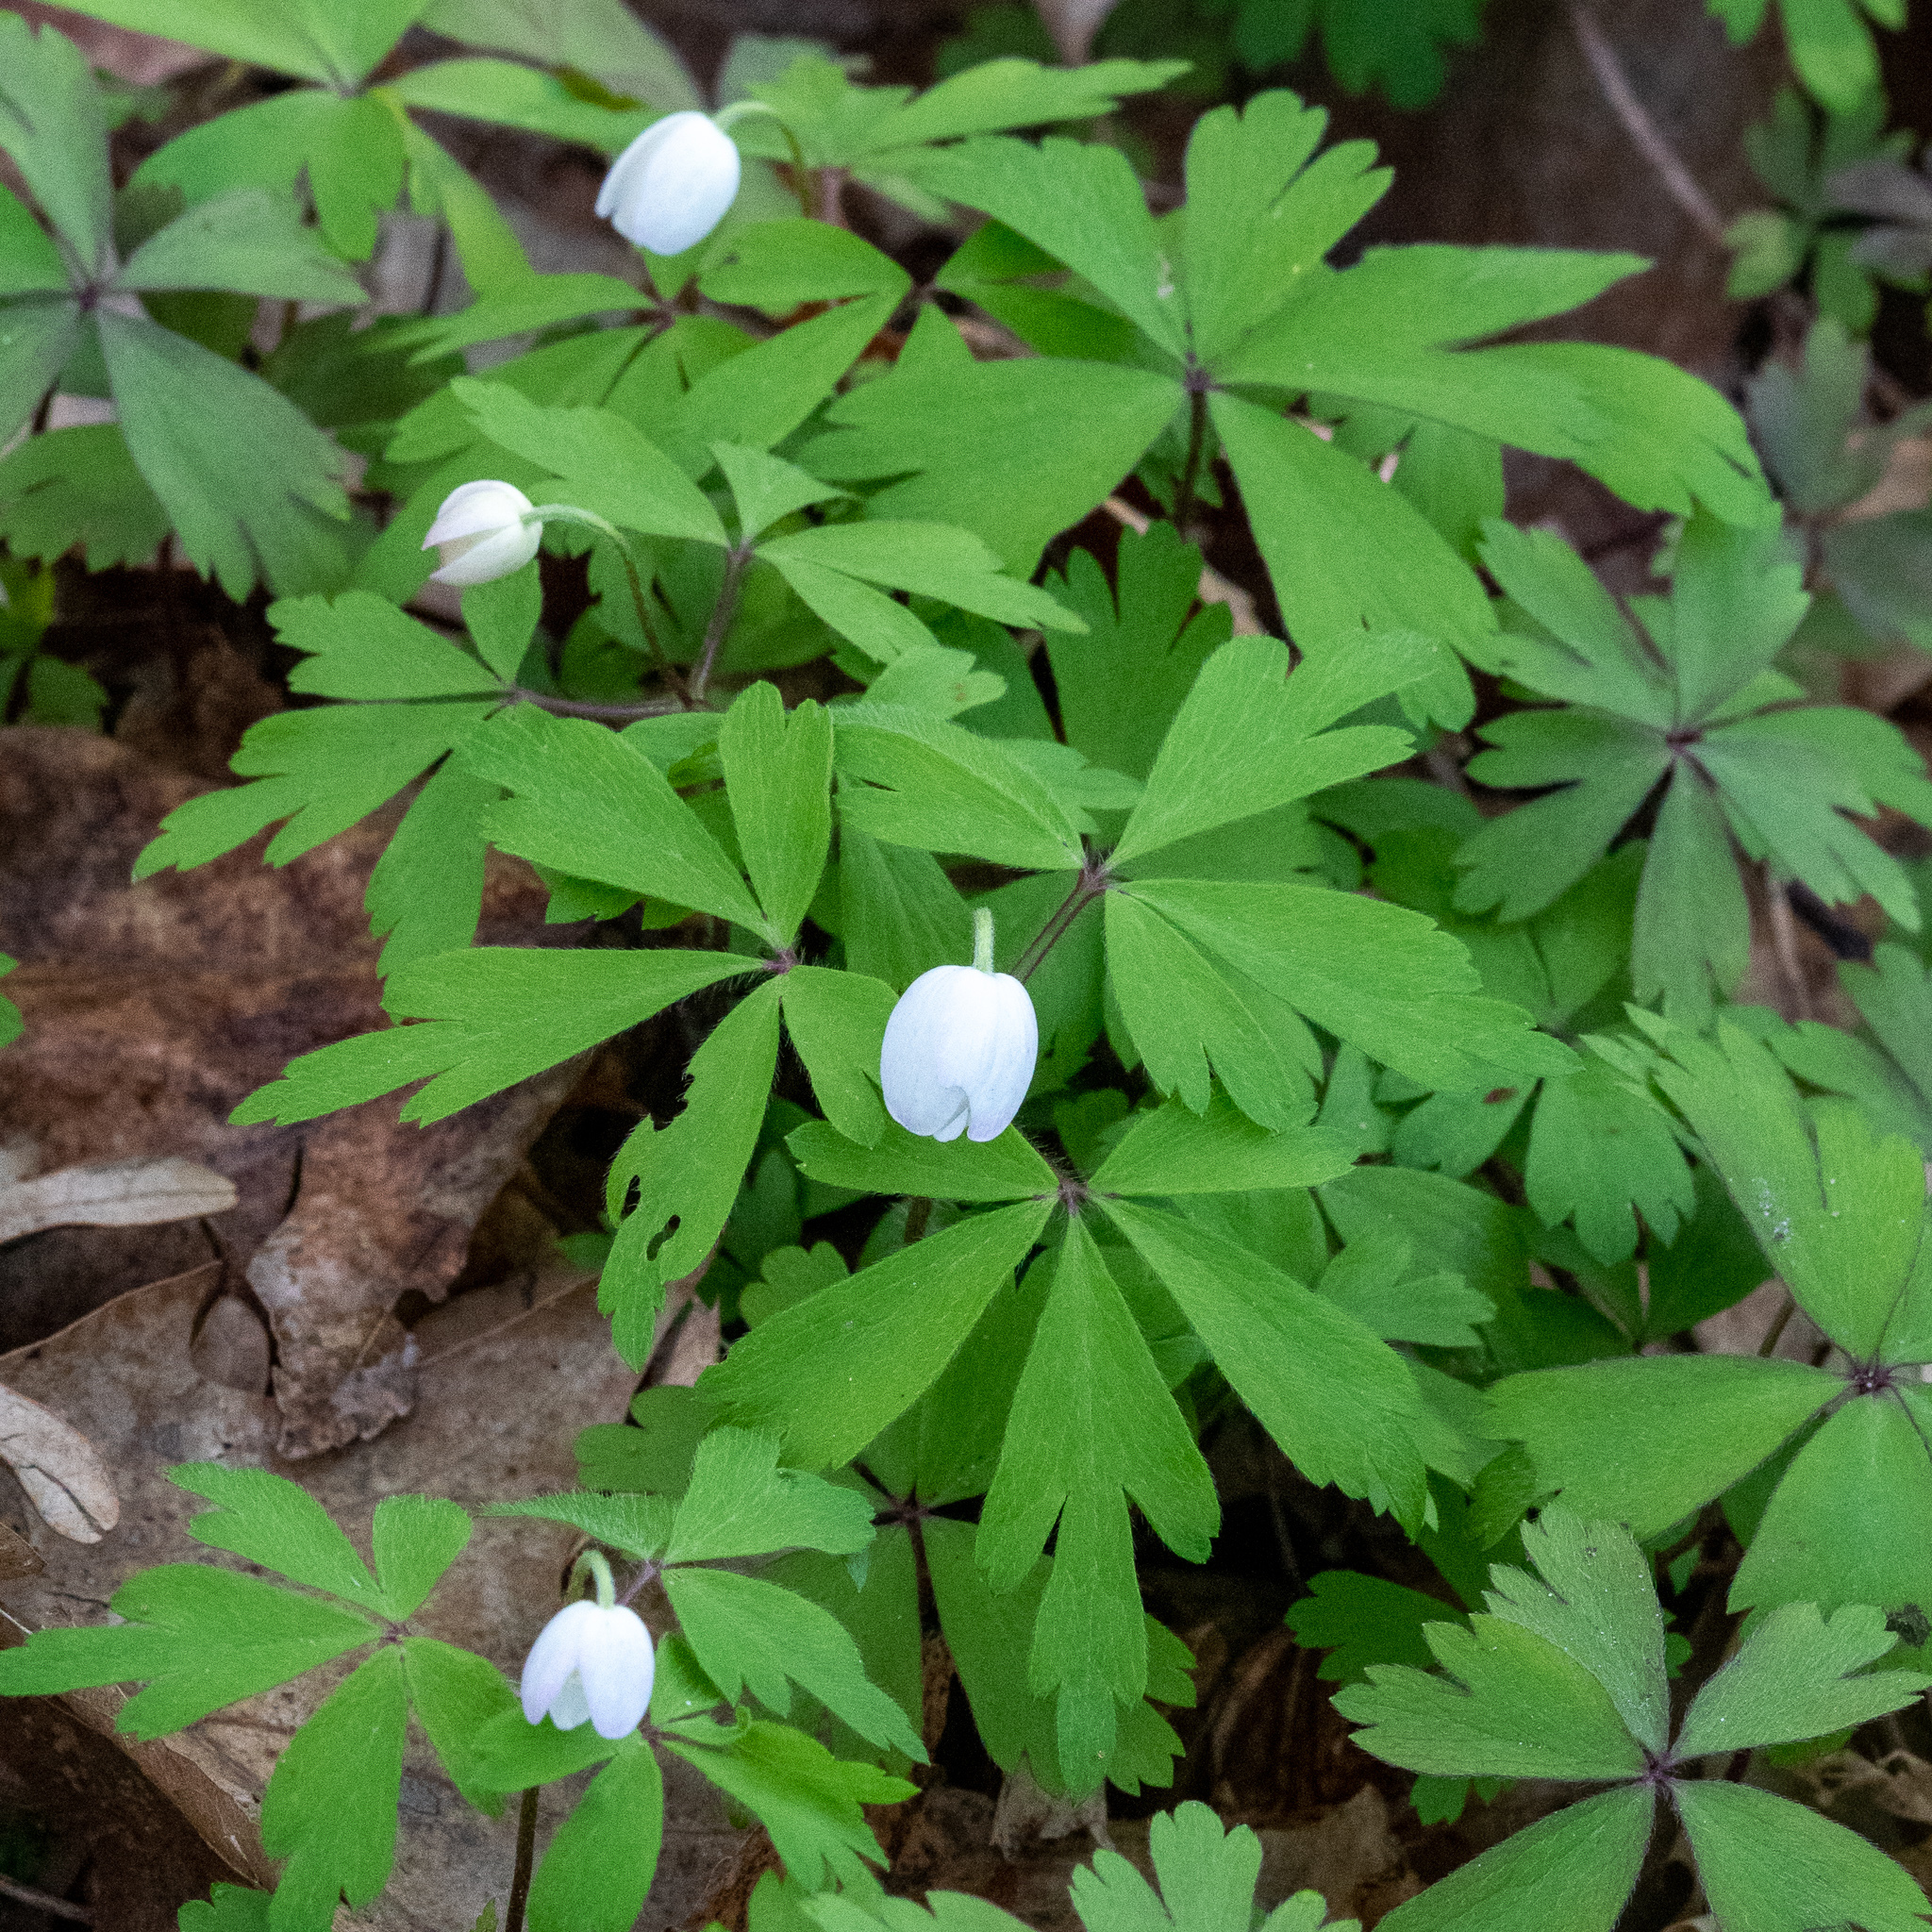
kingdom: Plantae
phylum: Tracheophyta
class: Magnoliopsida
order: Ranunculales
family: Ranunculaceae
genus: Anemone
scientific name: Anemone quinquefolia
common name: Wood anemone
